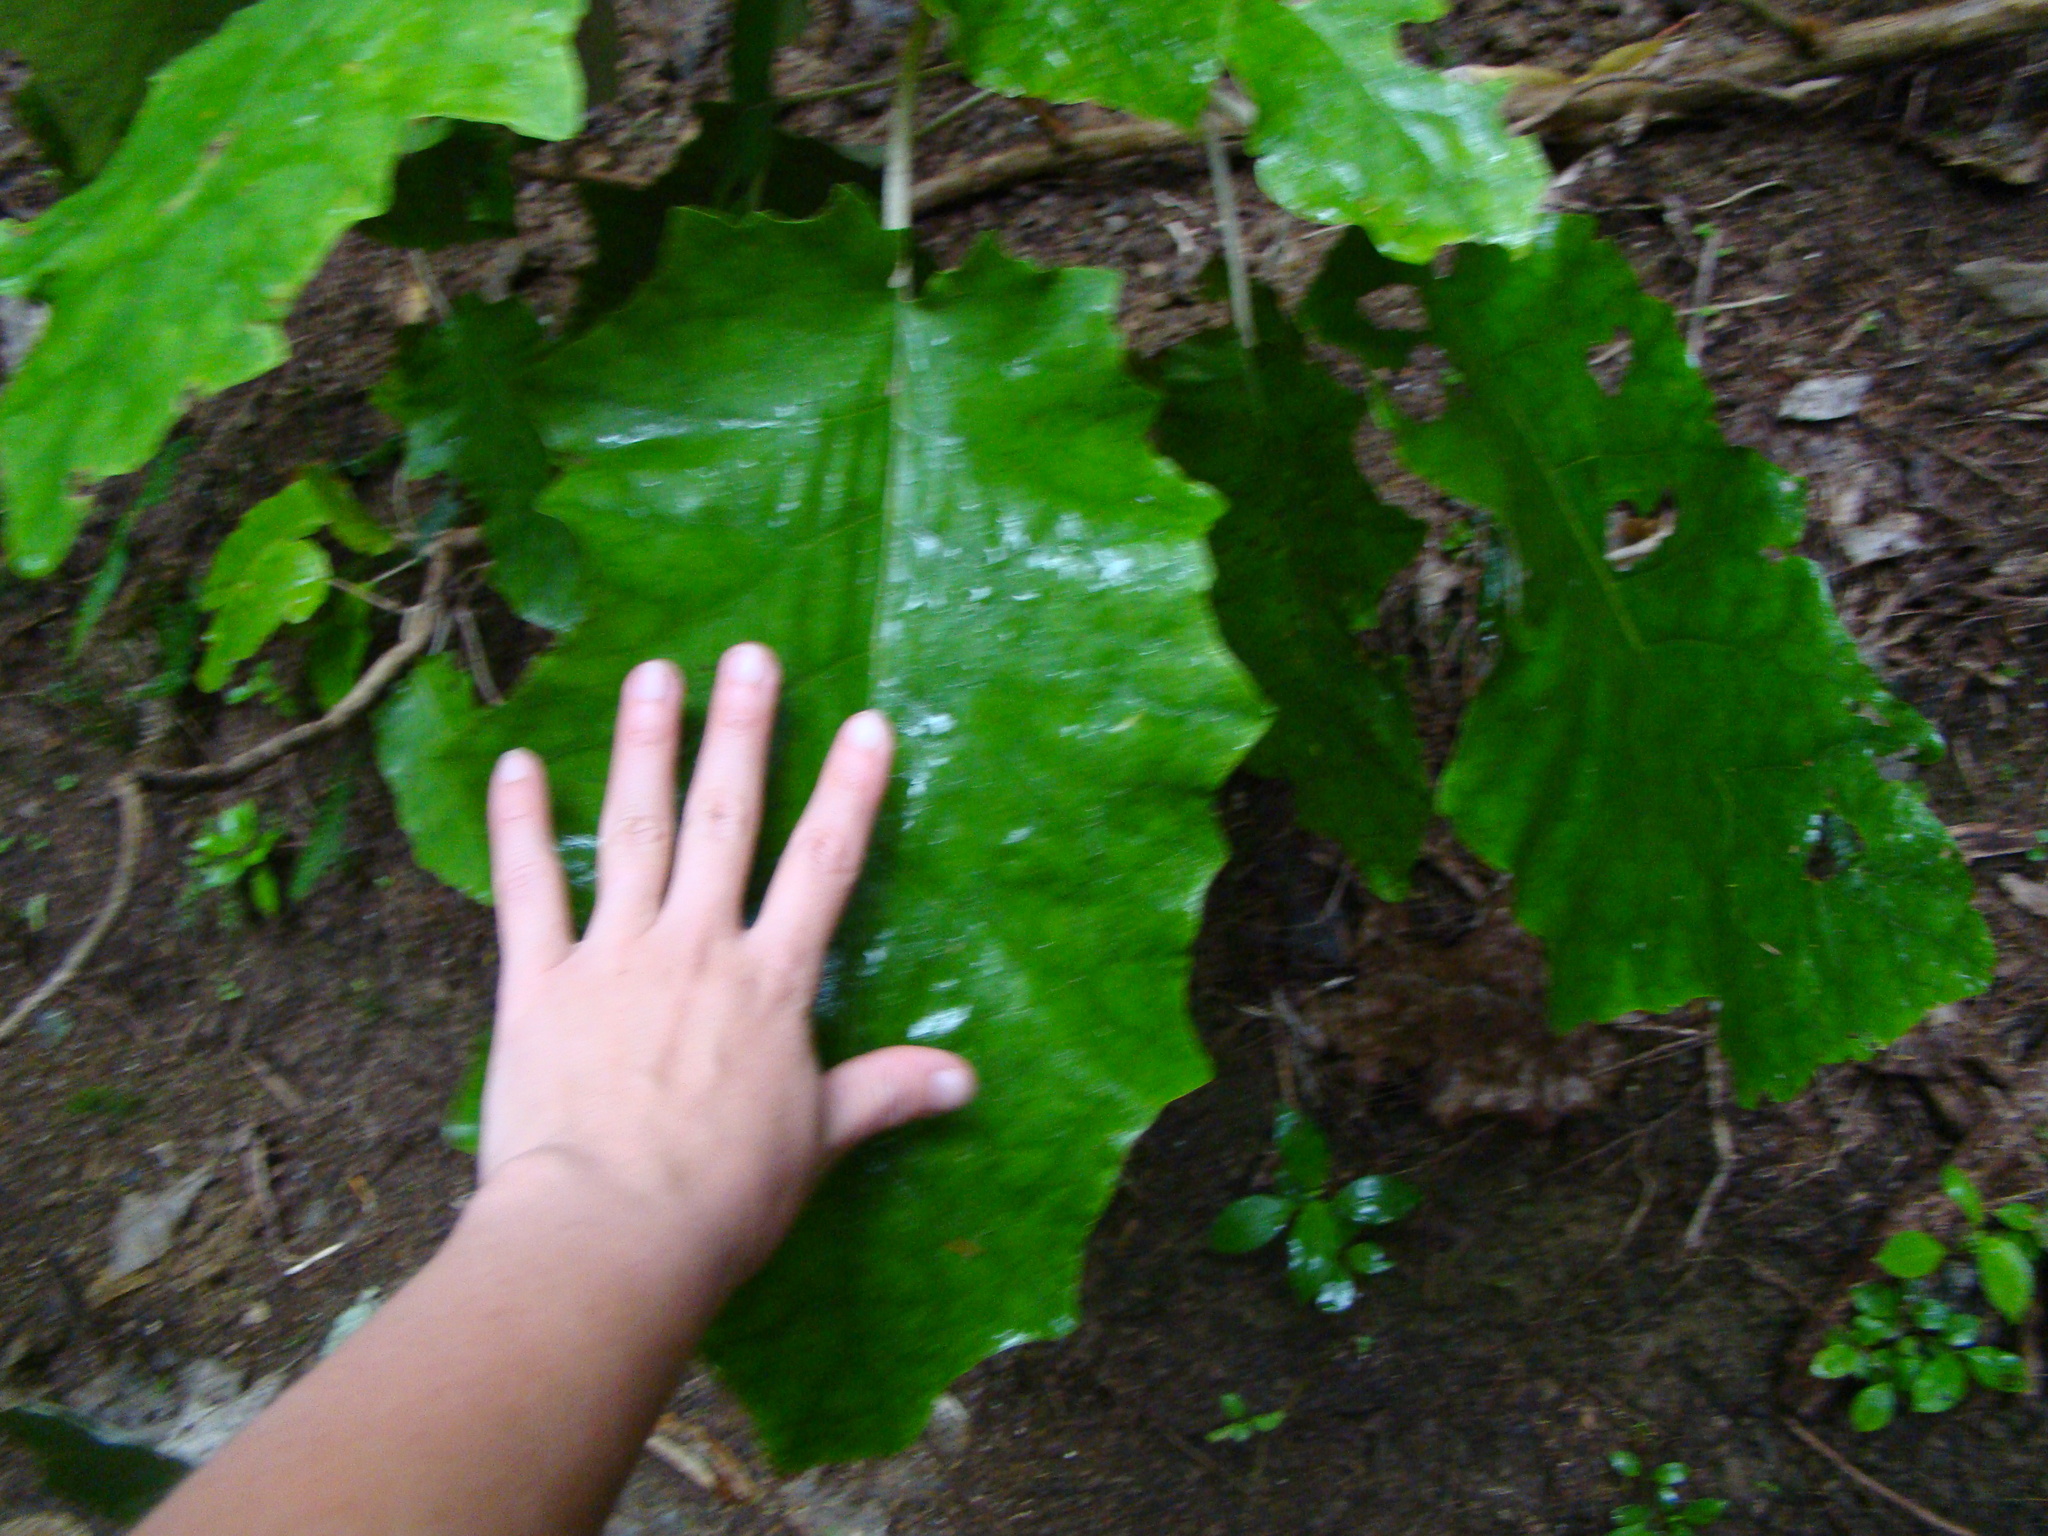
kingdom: Plantae
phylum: Tracheophyta
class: Magnoliopsida
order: Asterales
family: Asteraceae
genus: Brachyglottis
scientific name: Brachyglottis repanda
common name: Hedge ragwort
